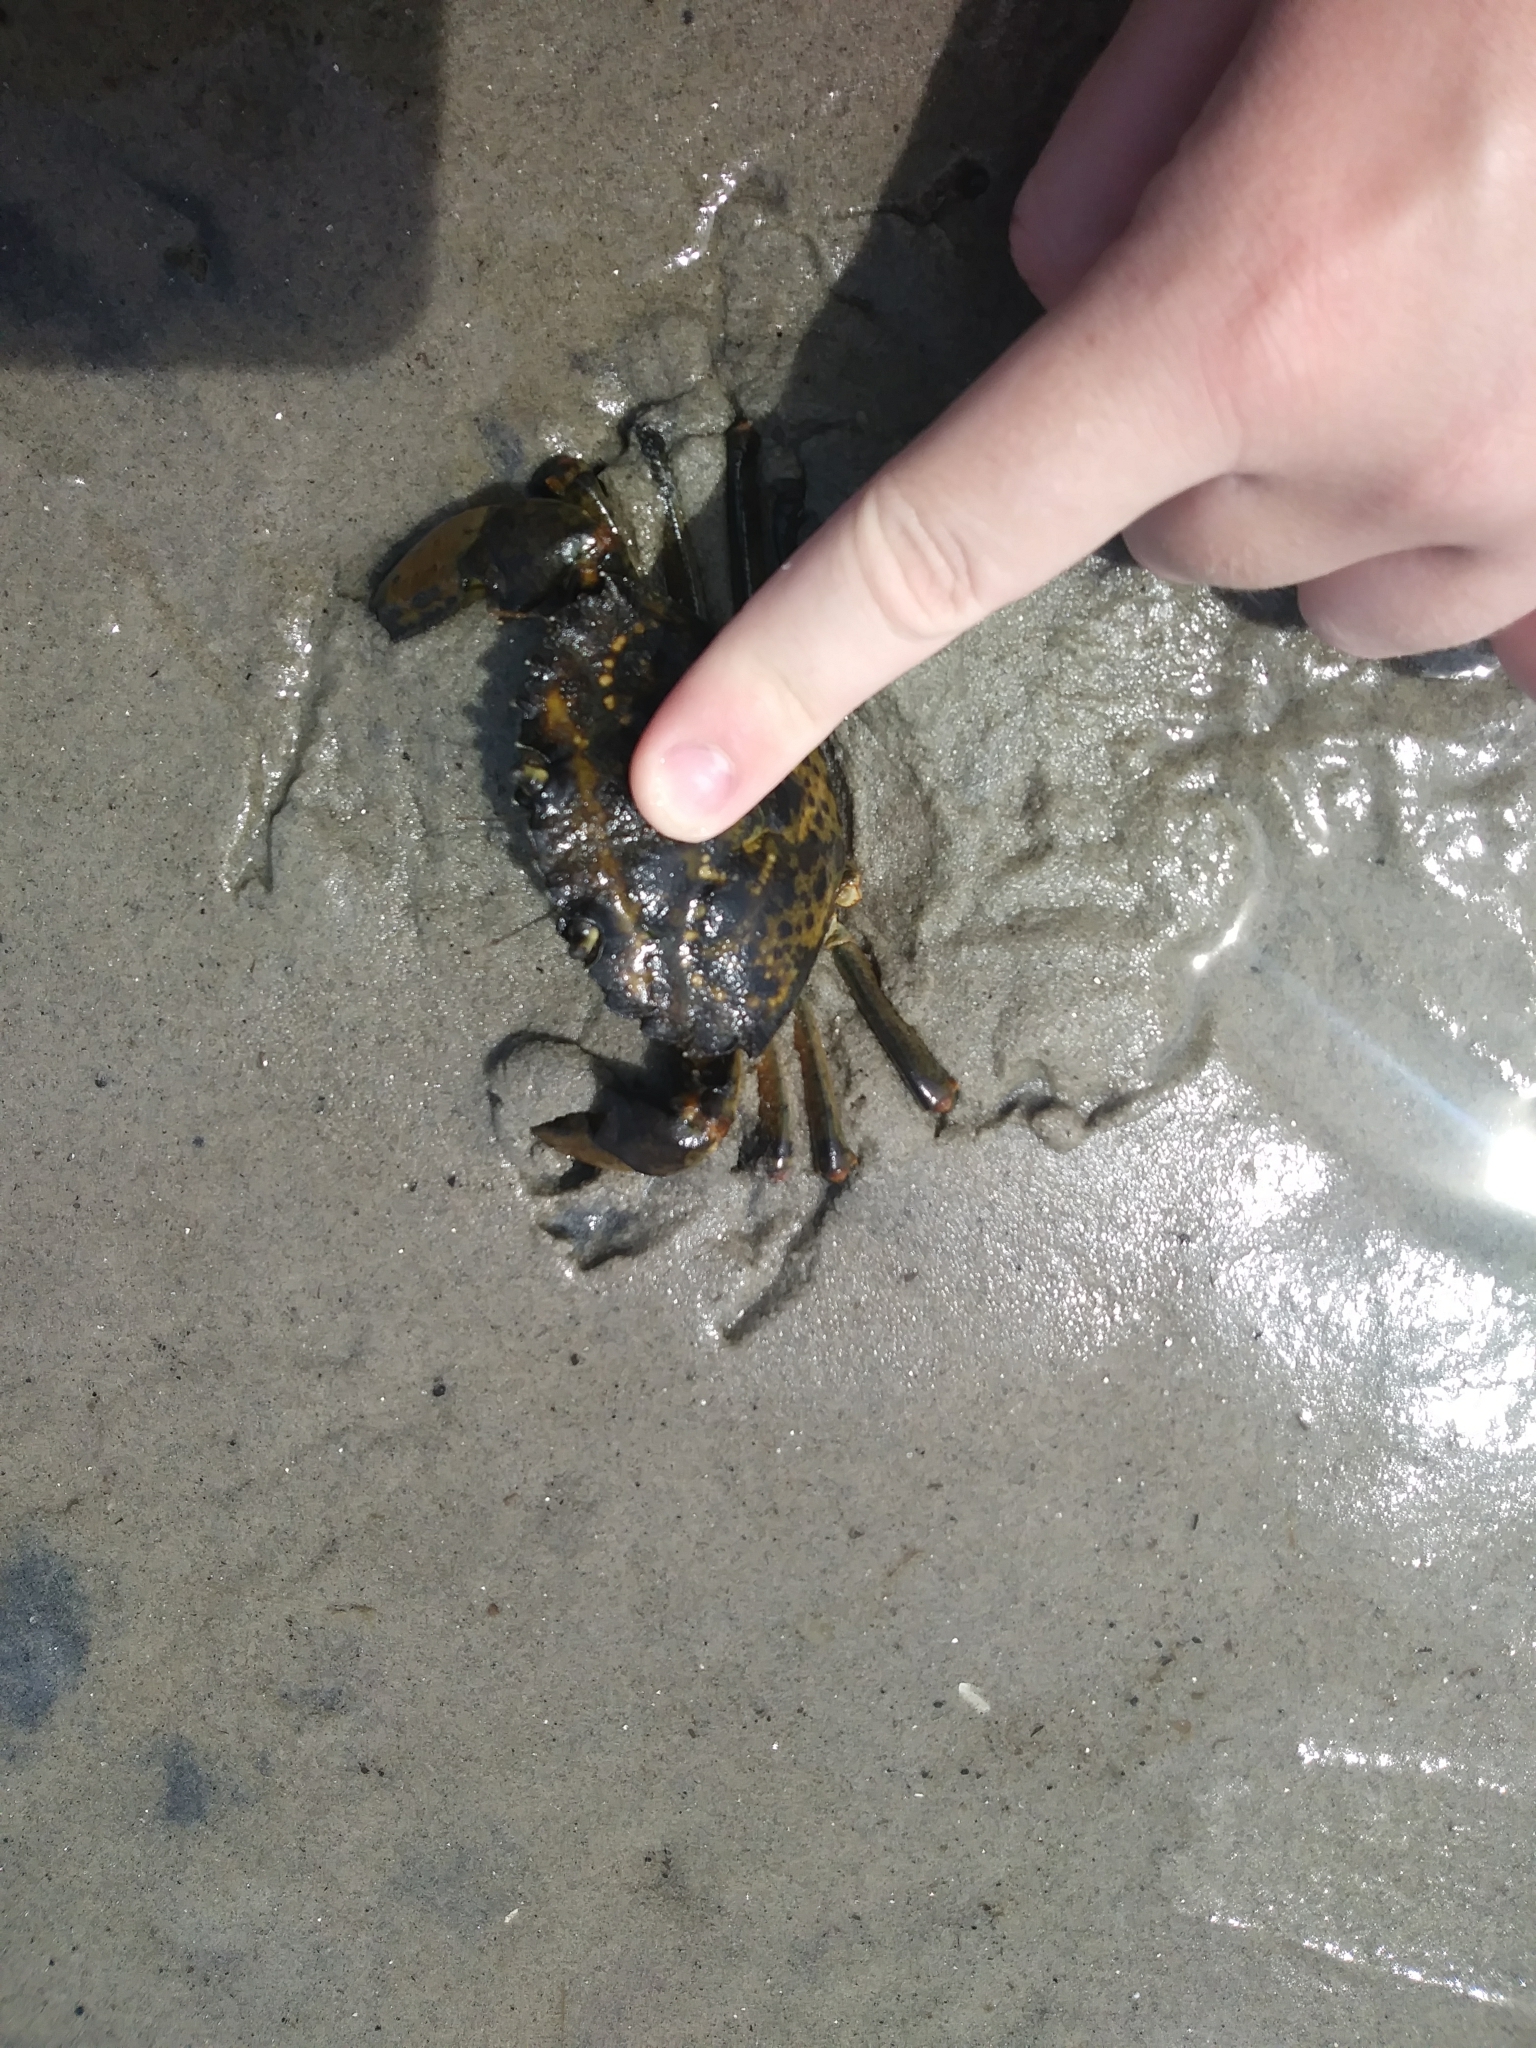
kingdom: Animalia
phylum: Arthropoda
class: Malacostraca
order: Decapoda
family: Carcinidae
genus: Carcinus
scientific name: Carcinus maenas
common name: European green crab
